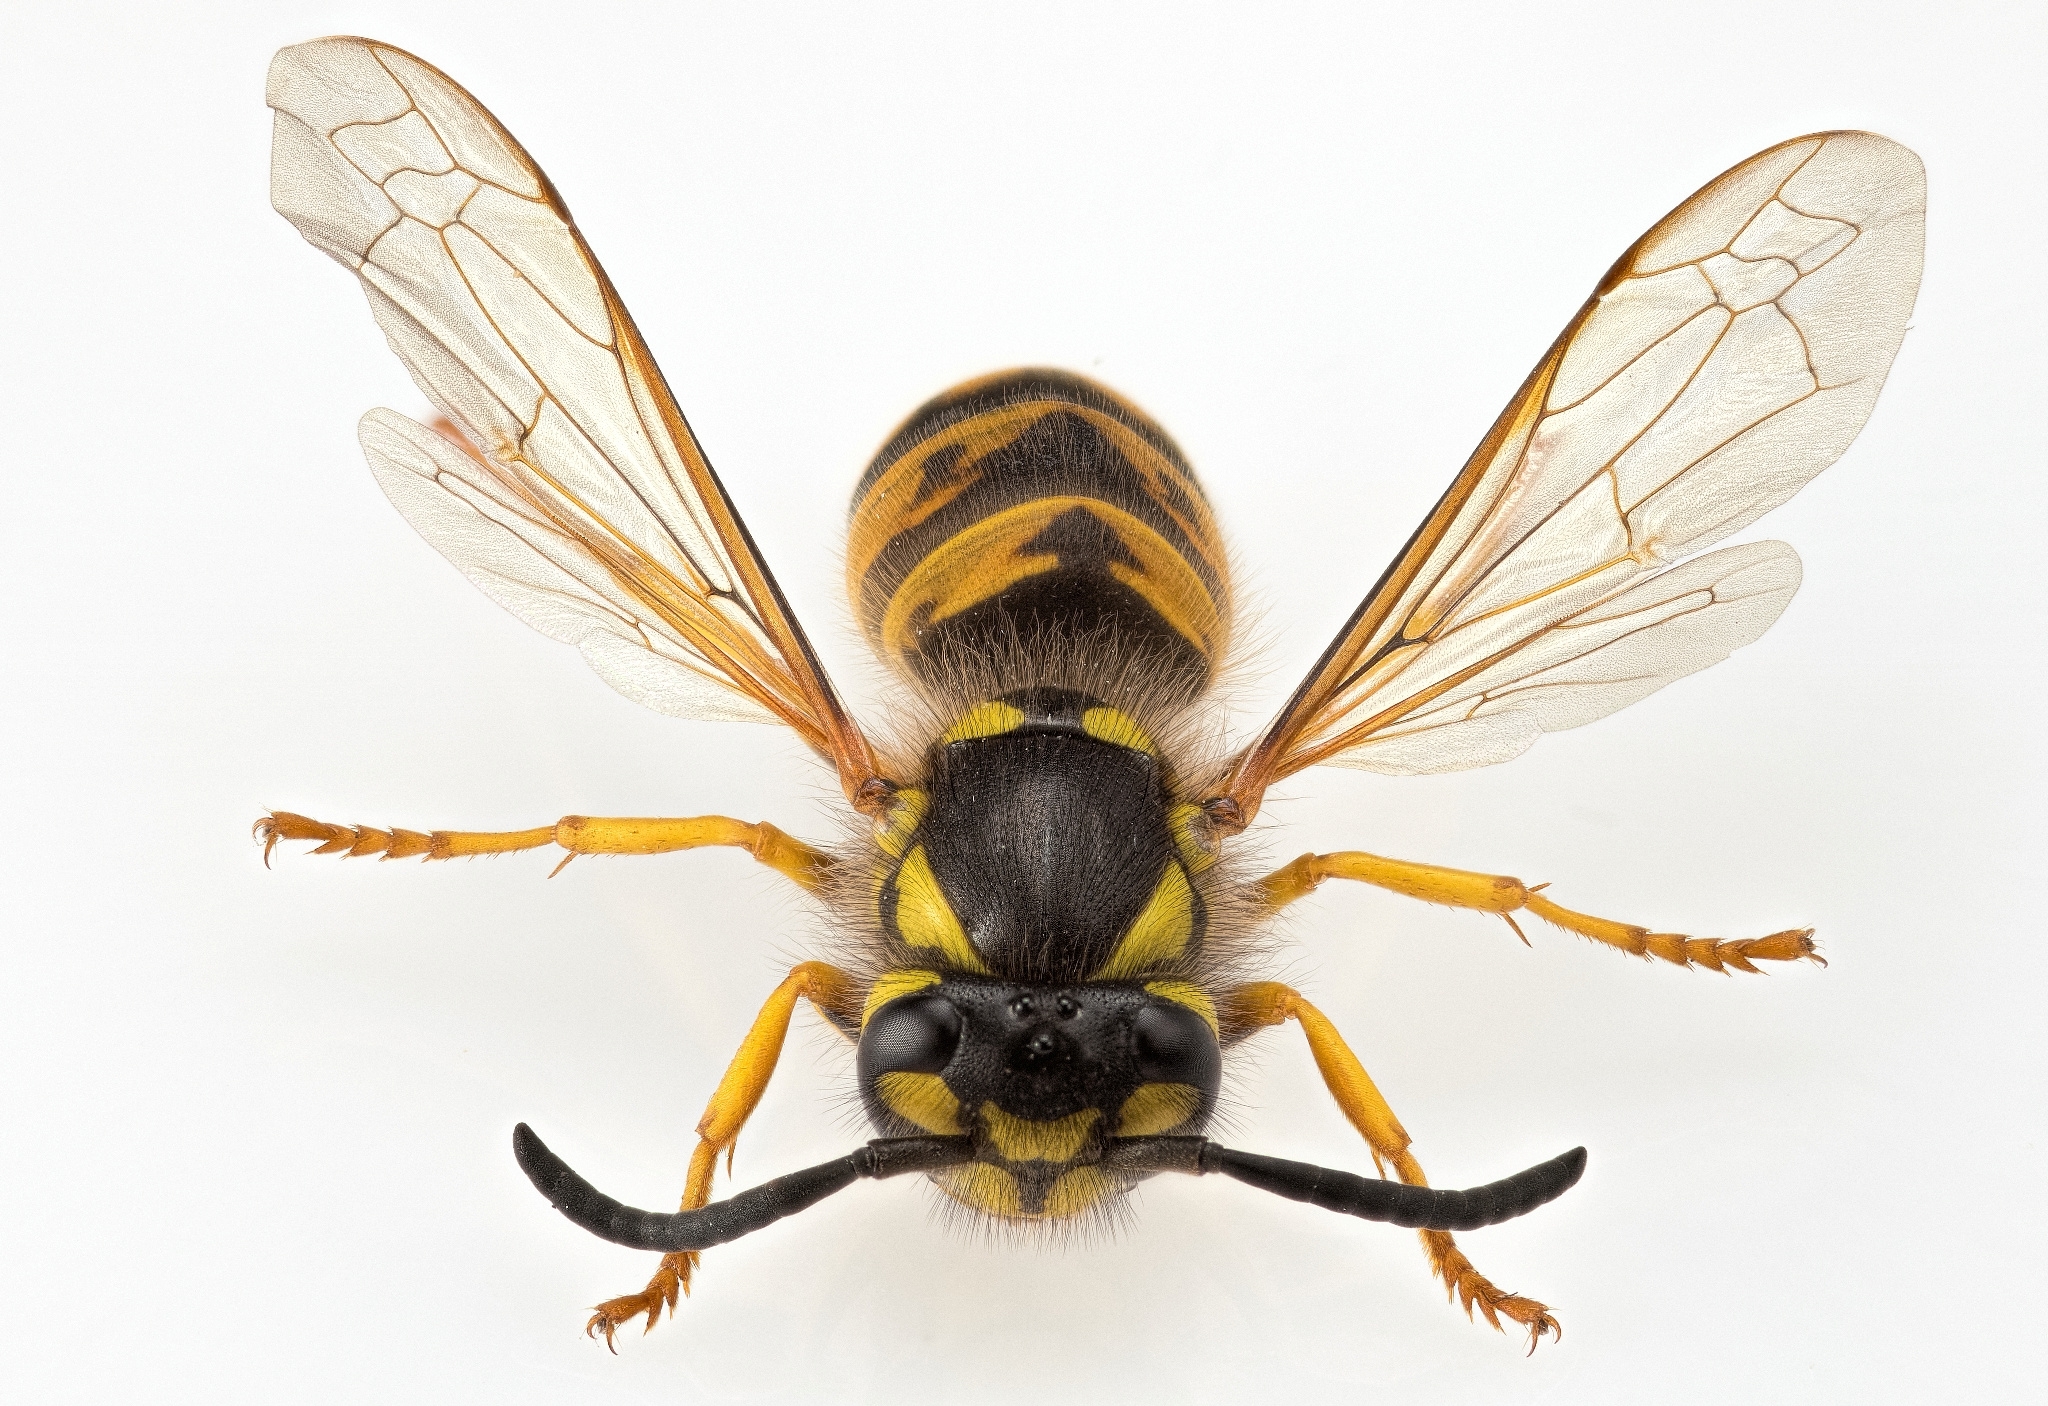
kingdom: Animalia
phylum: Arthropoda
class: Insecta
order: Hymenoptera
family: Vespidae
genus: Vespula
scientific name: Vespula germanica
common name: German wasp
